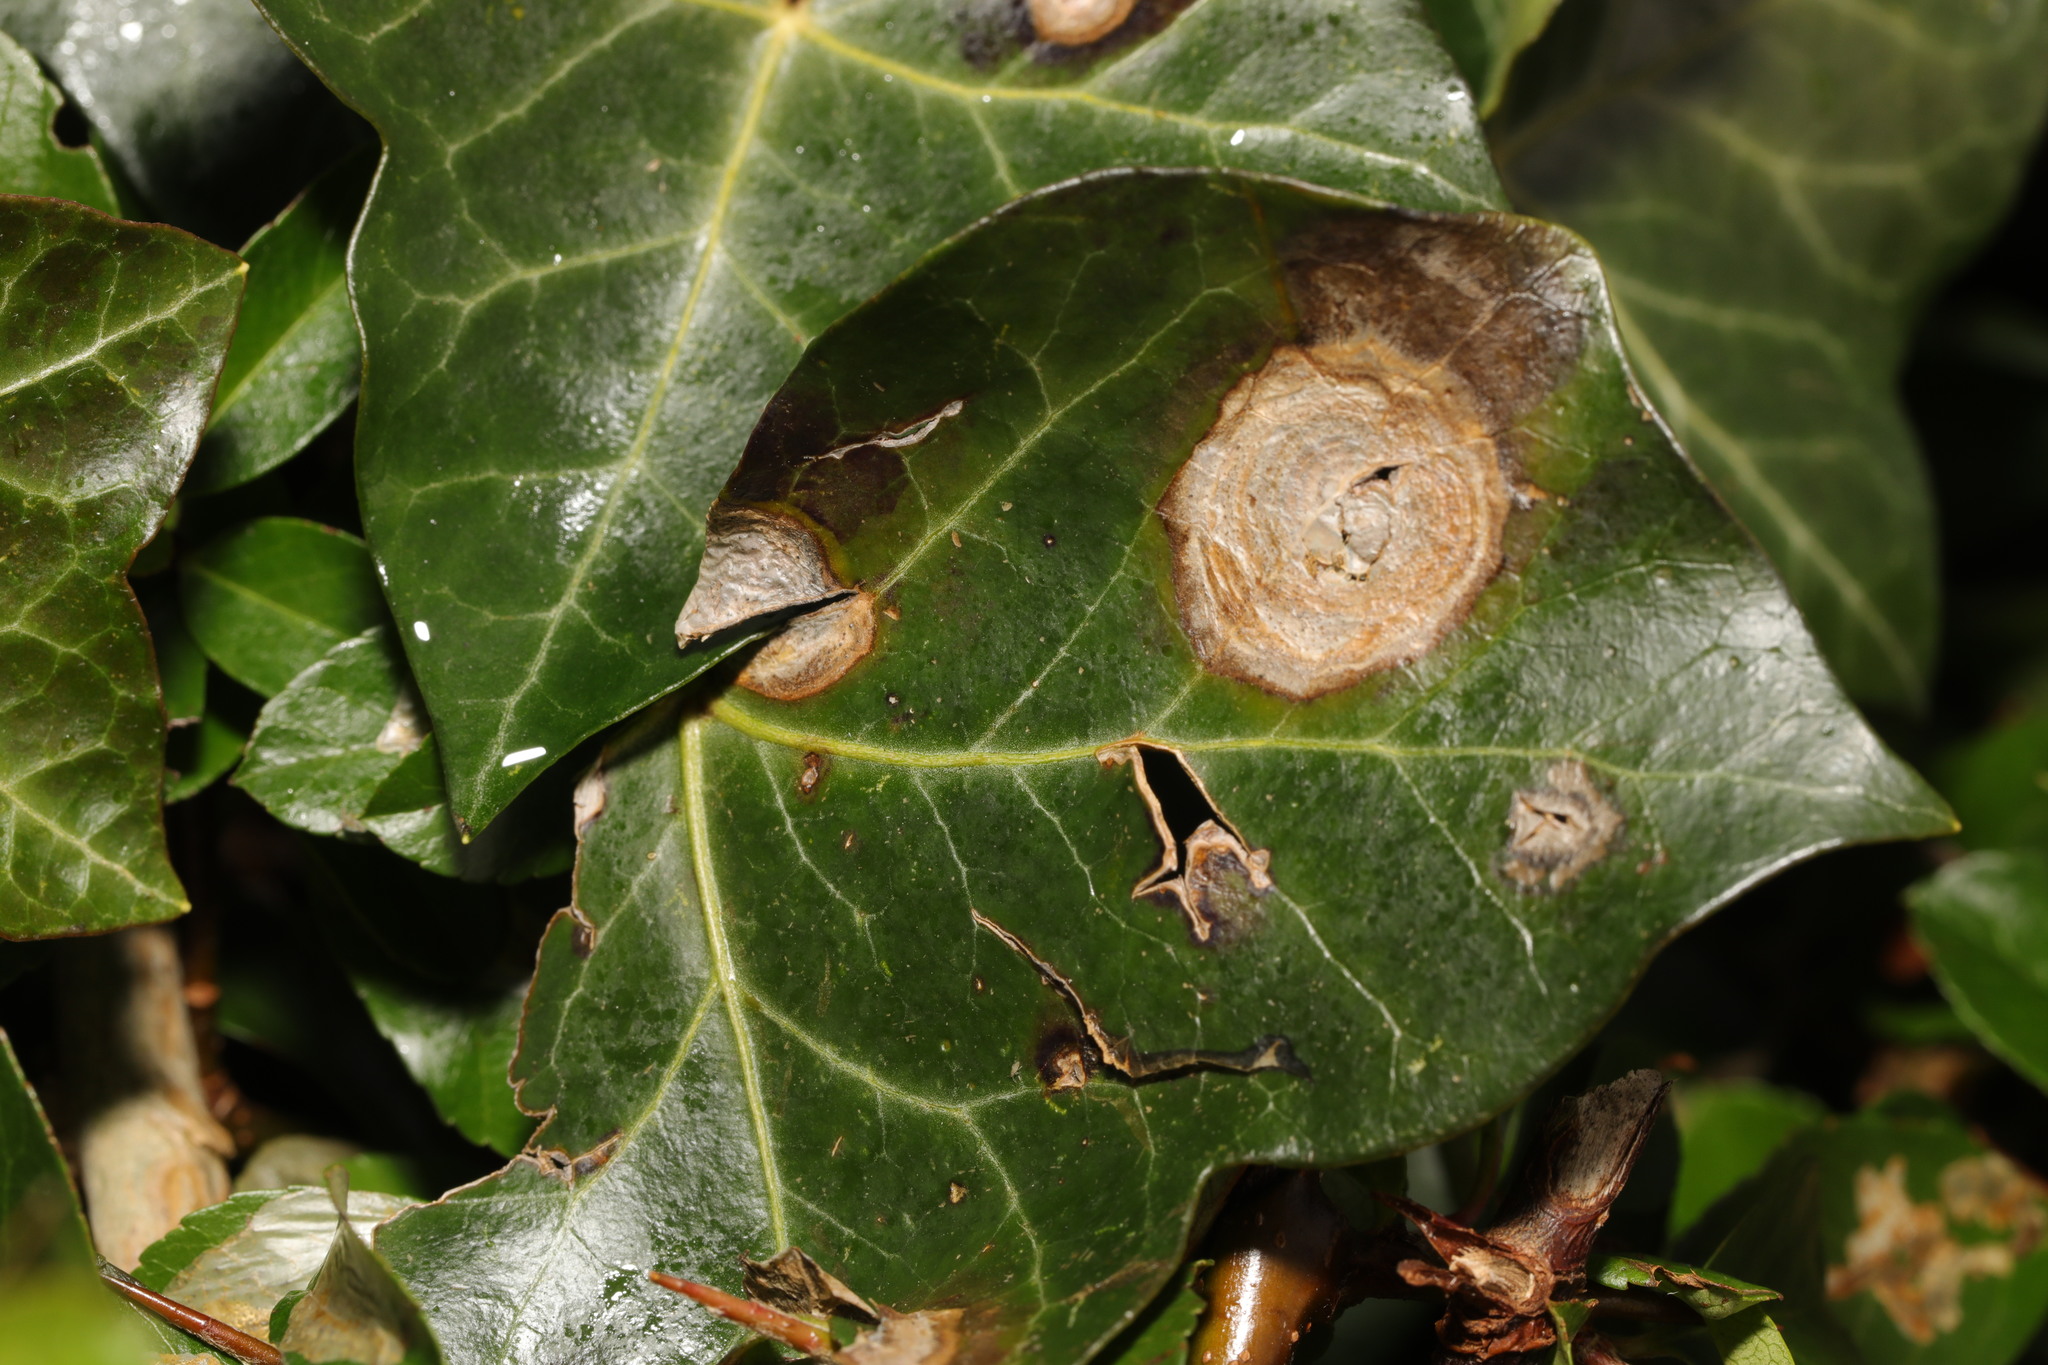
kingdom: Fungi
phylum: Ascomycota
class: Dothideomycetes
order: Pleosporales
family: Didymellaceae
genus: Boeremia
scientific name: Boeremia hedericola
